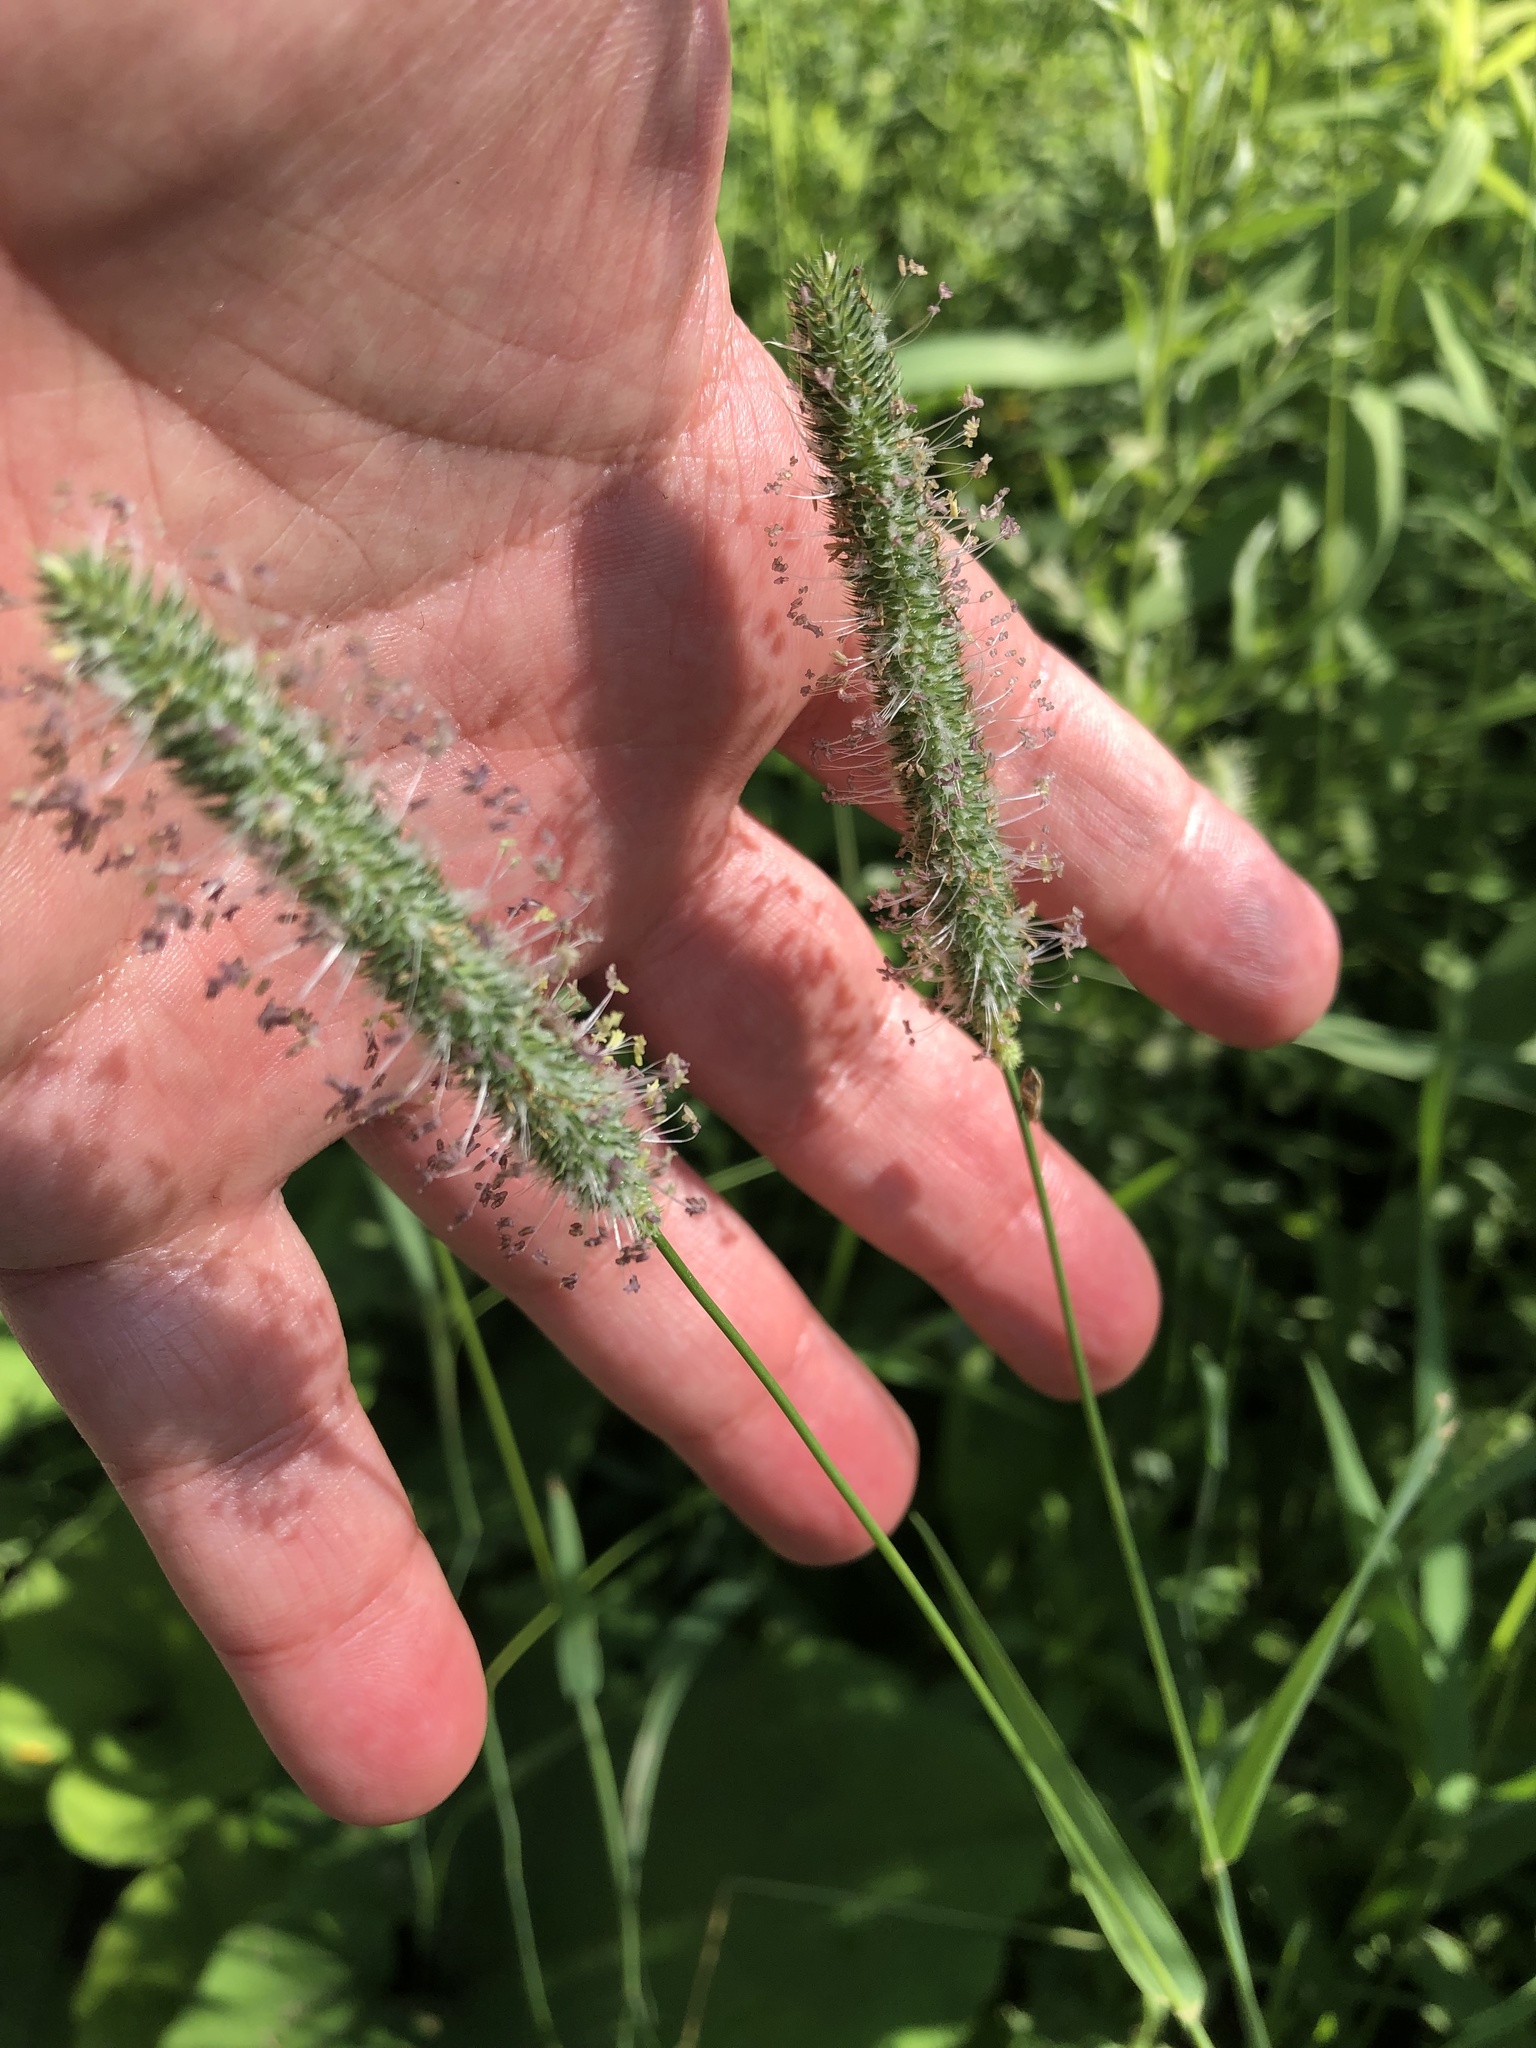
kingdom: Plantae
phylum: Tracheophyta
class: Liliopsida
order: Poales
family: Poaceae
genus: Phleum
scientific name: Phleum pratense
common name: Timothy grass
